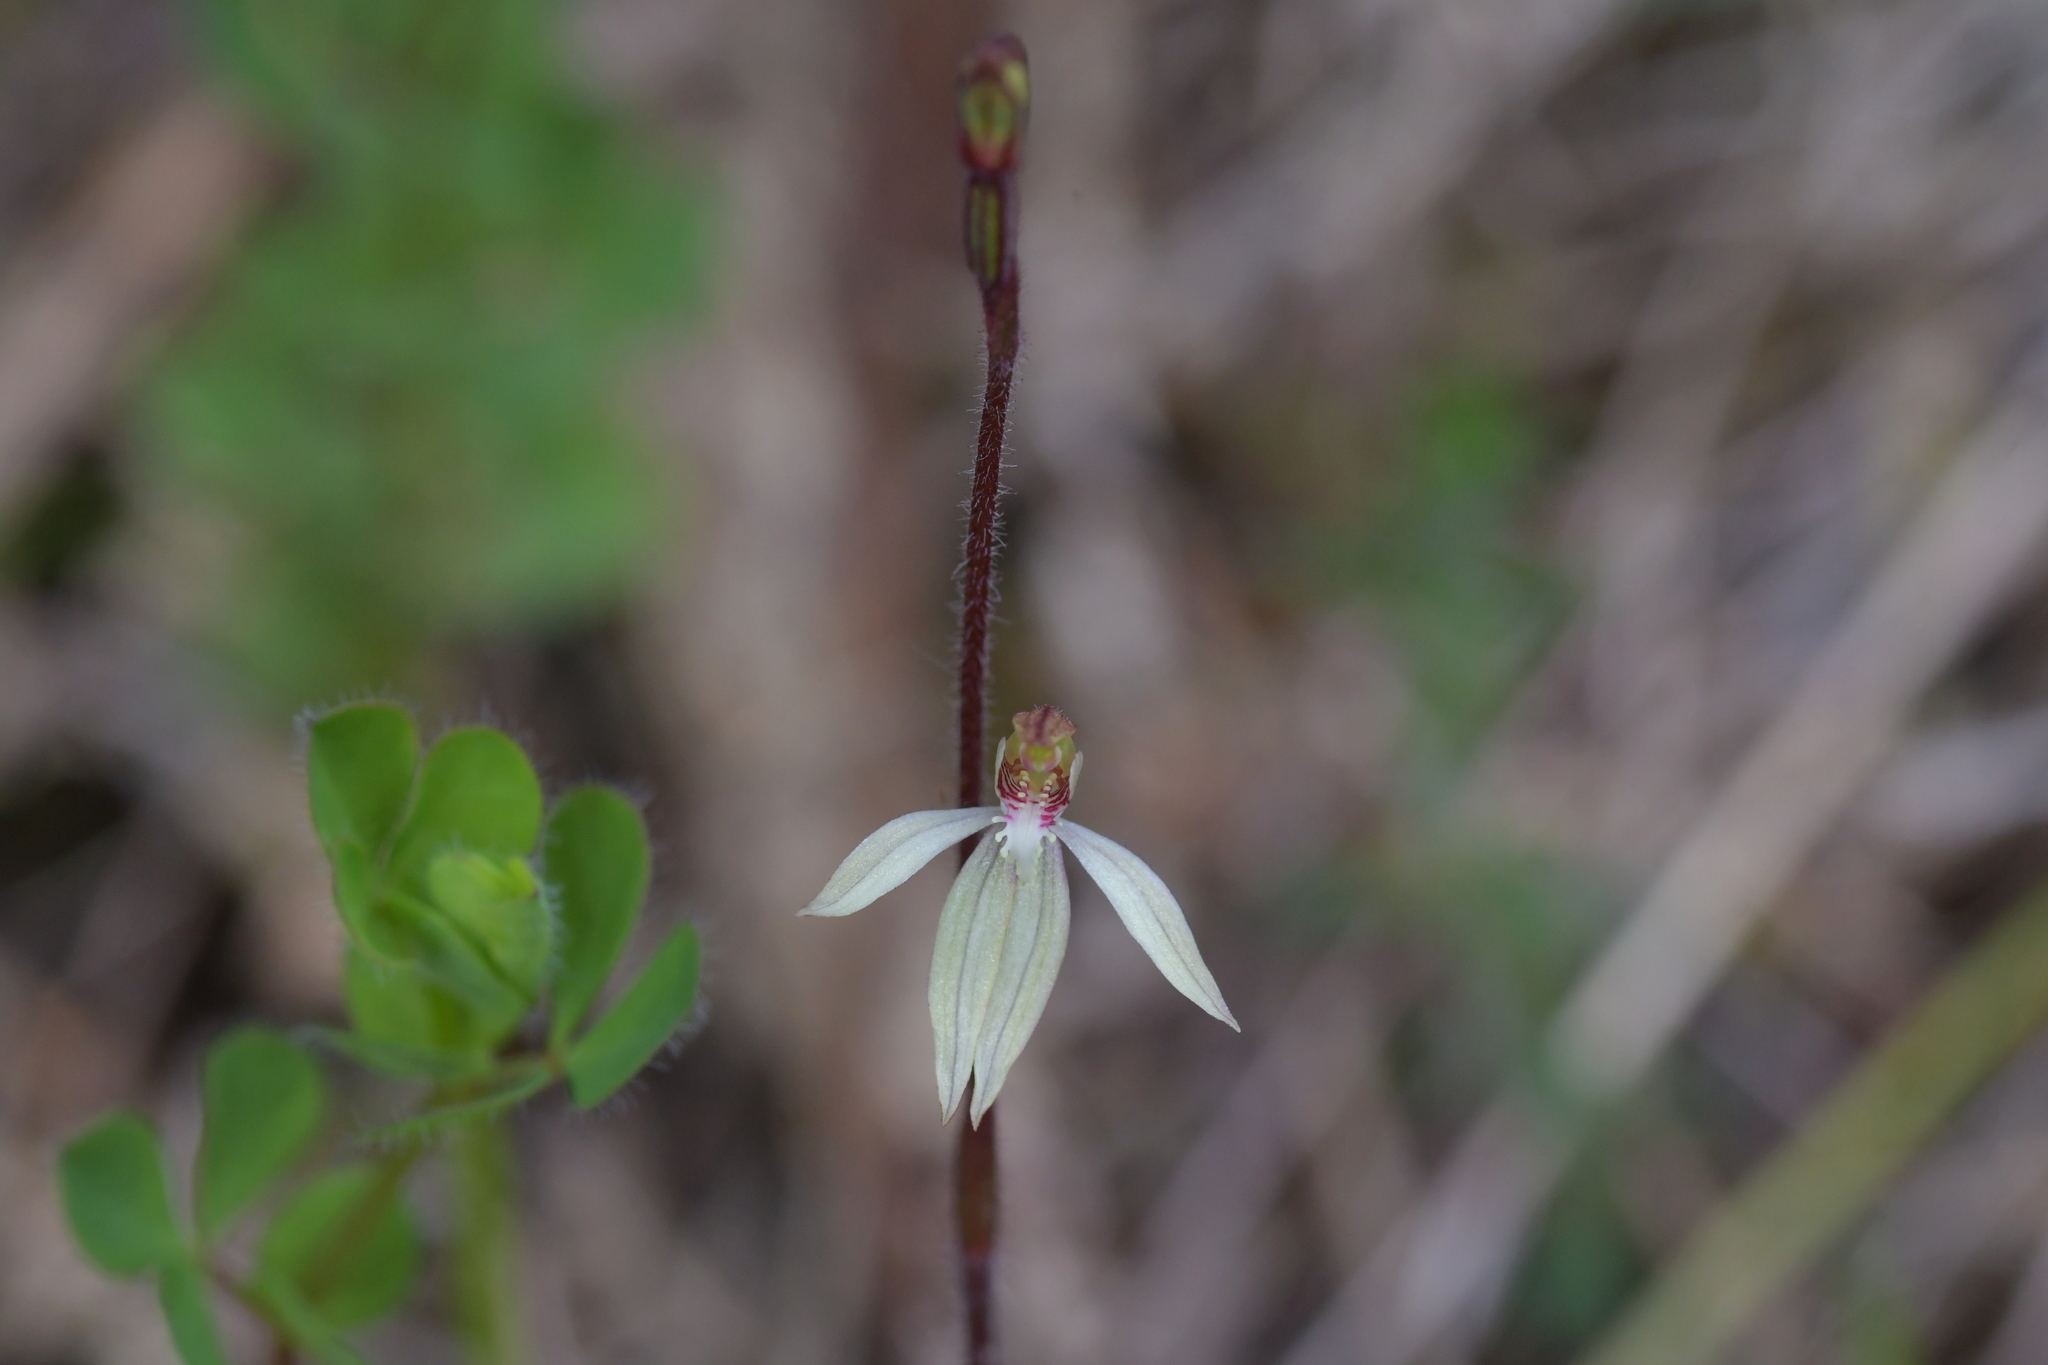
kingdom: Plantae
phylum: Tracheophyta
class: Liliopsida
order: Asparagales
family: Orchidaceae
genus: Caladenia
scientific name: Caladenia chlorostyla
